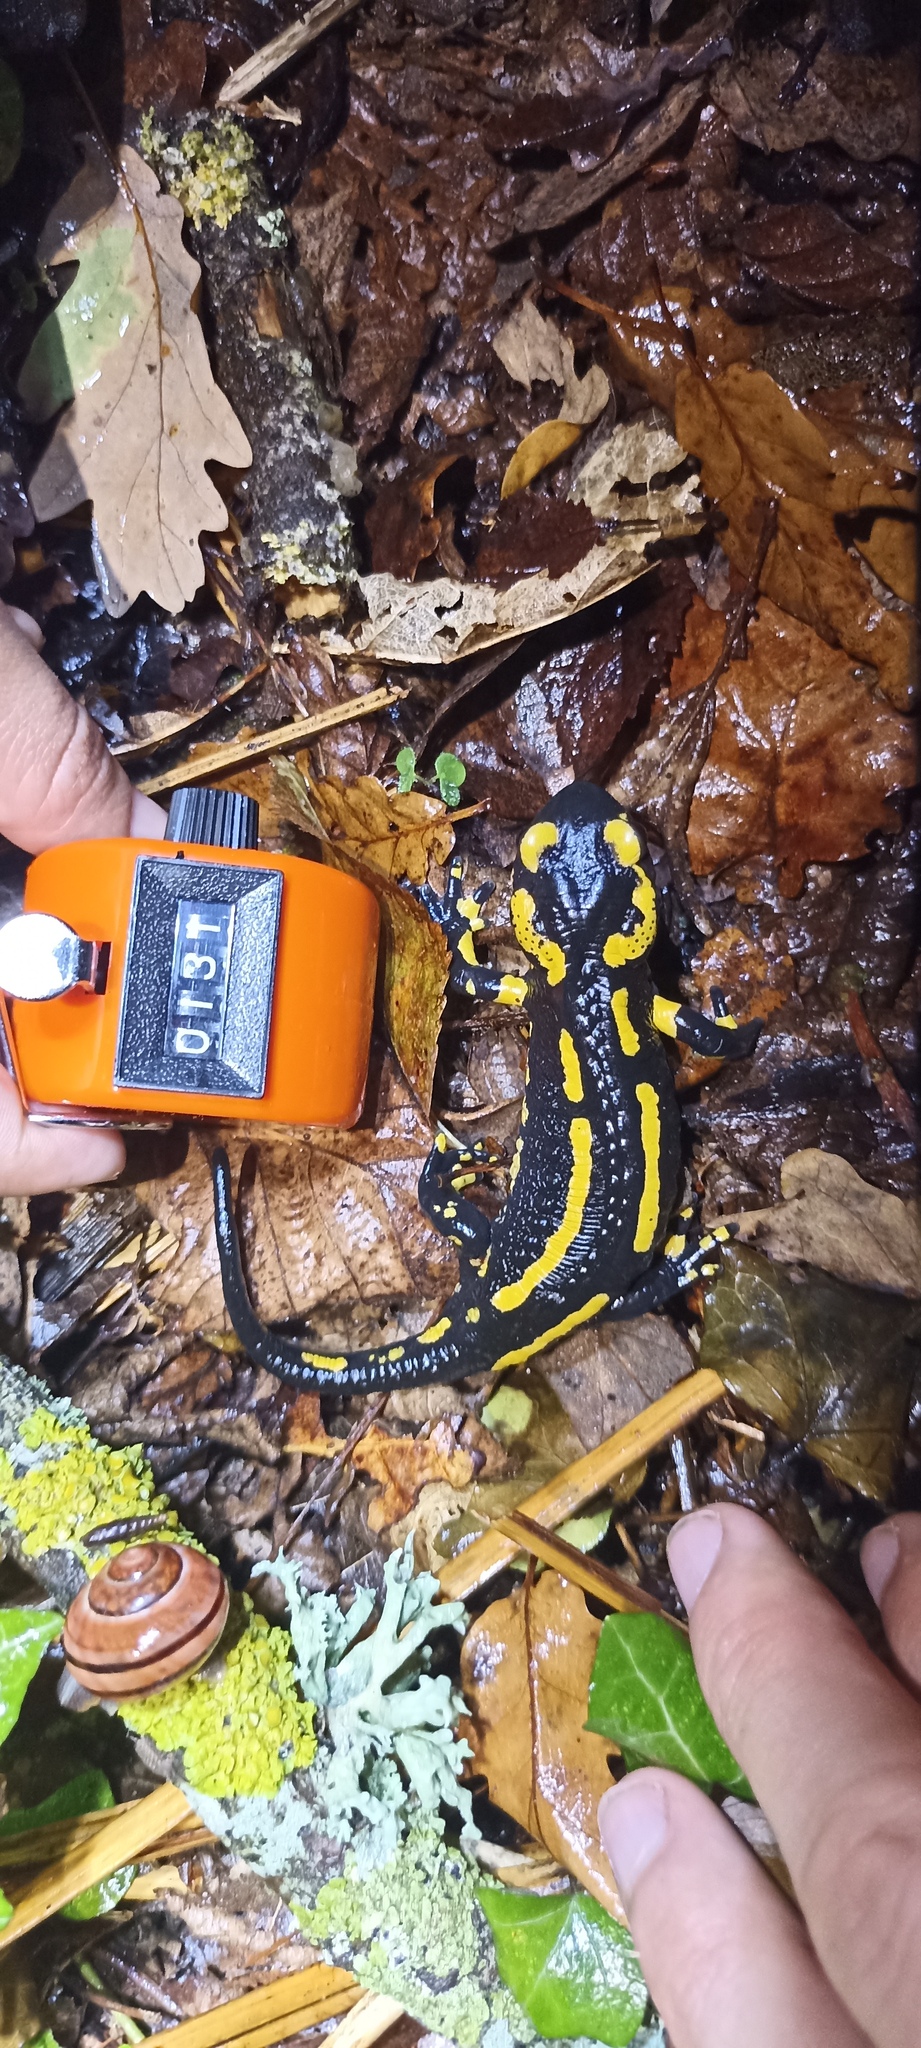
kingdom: Animalia
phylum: Chordata
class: Amphibia
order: Caudata
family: Salamandridae
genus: Salamandra
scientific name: Salamandra salamandra
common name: Fire salamander
